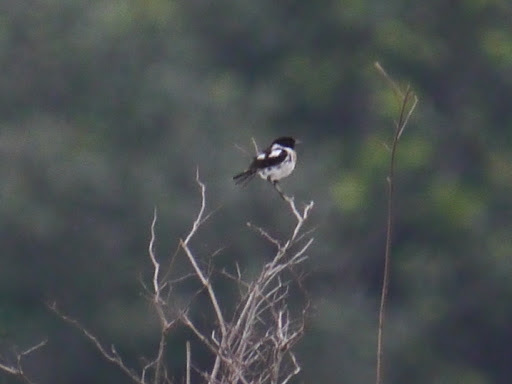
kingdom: Animalia
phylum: Chordata
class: Aves
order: Passeriformes
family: Muscicapidae
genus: Saxicola
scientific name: Saxicola torquatus
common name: African stonechat
